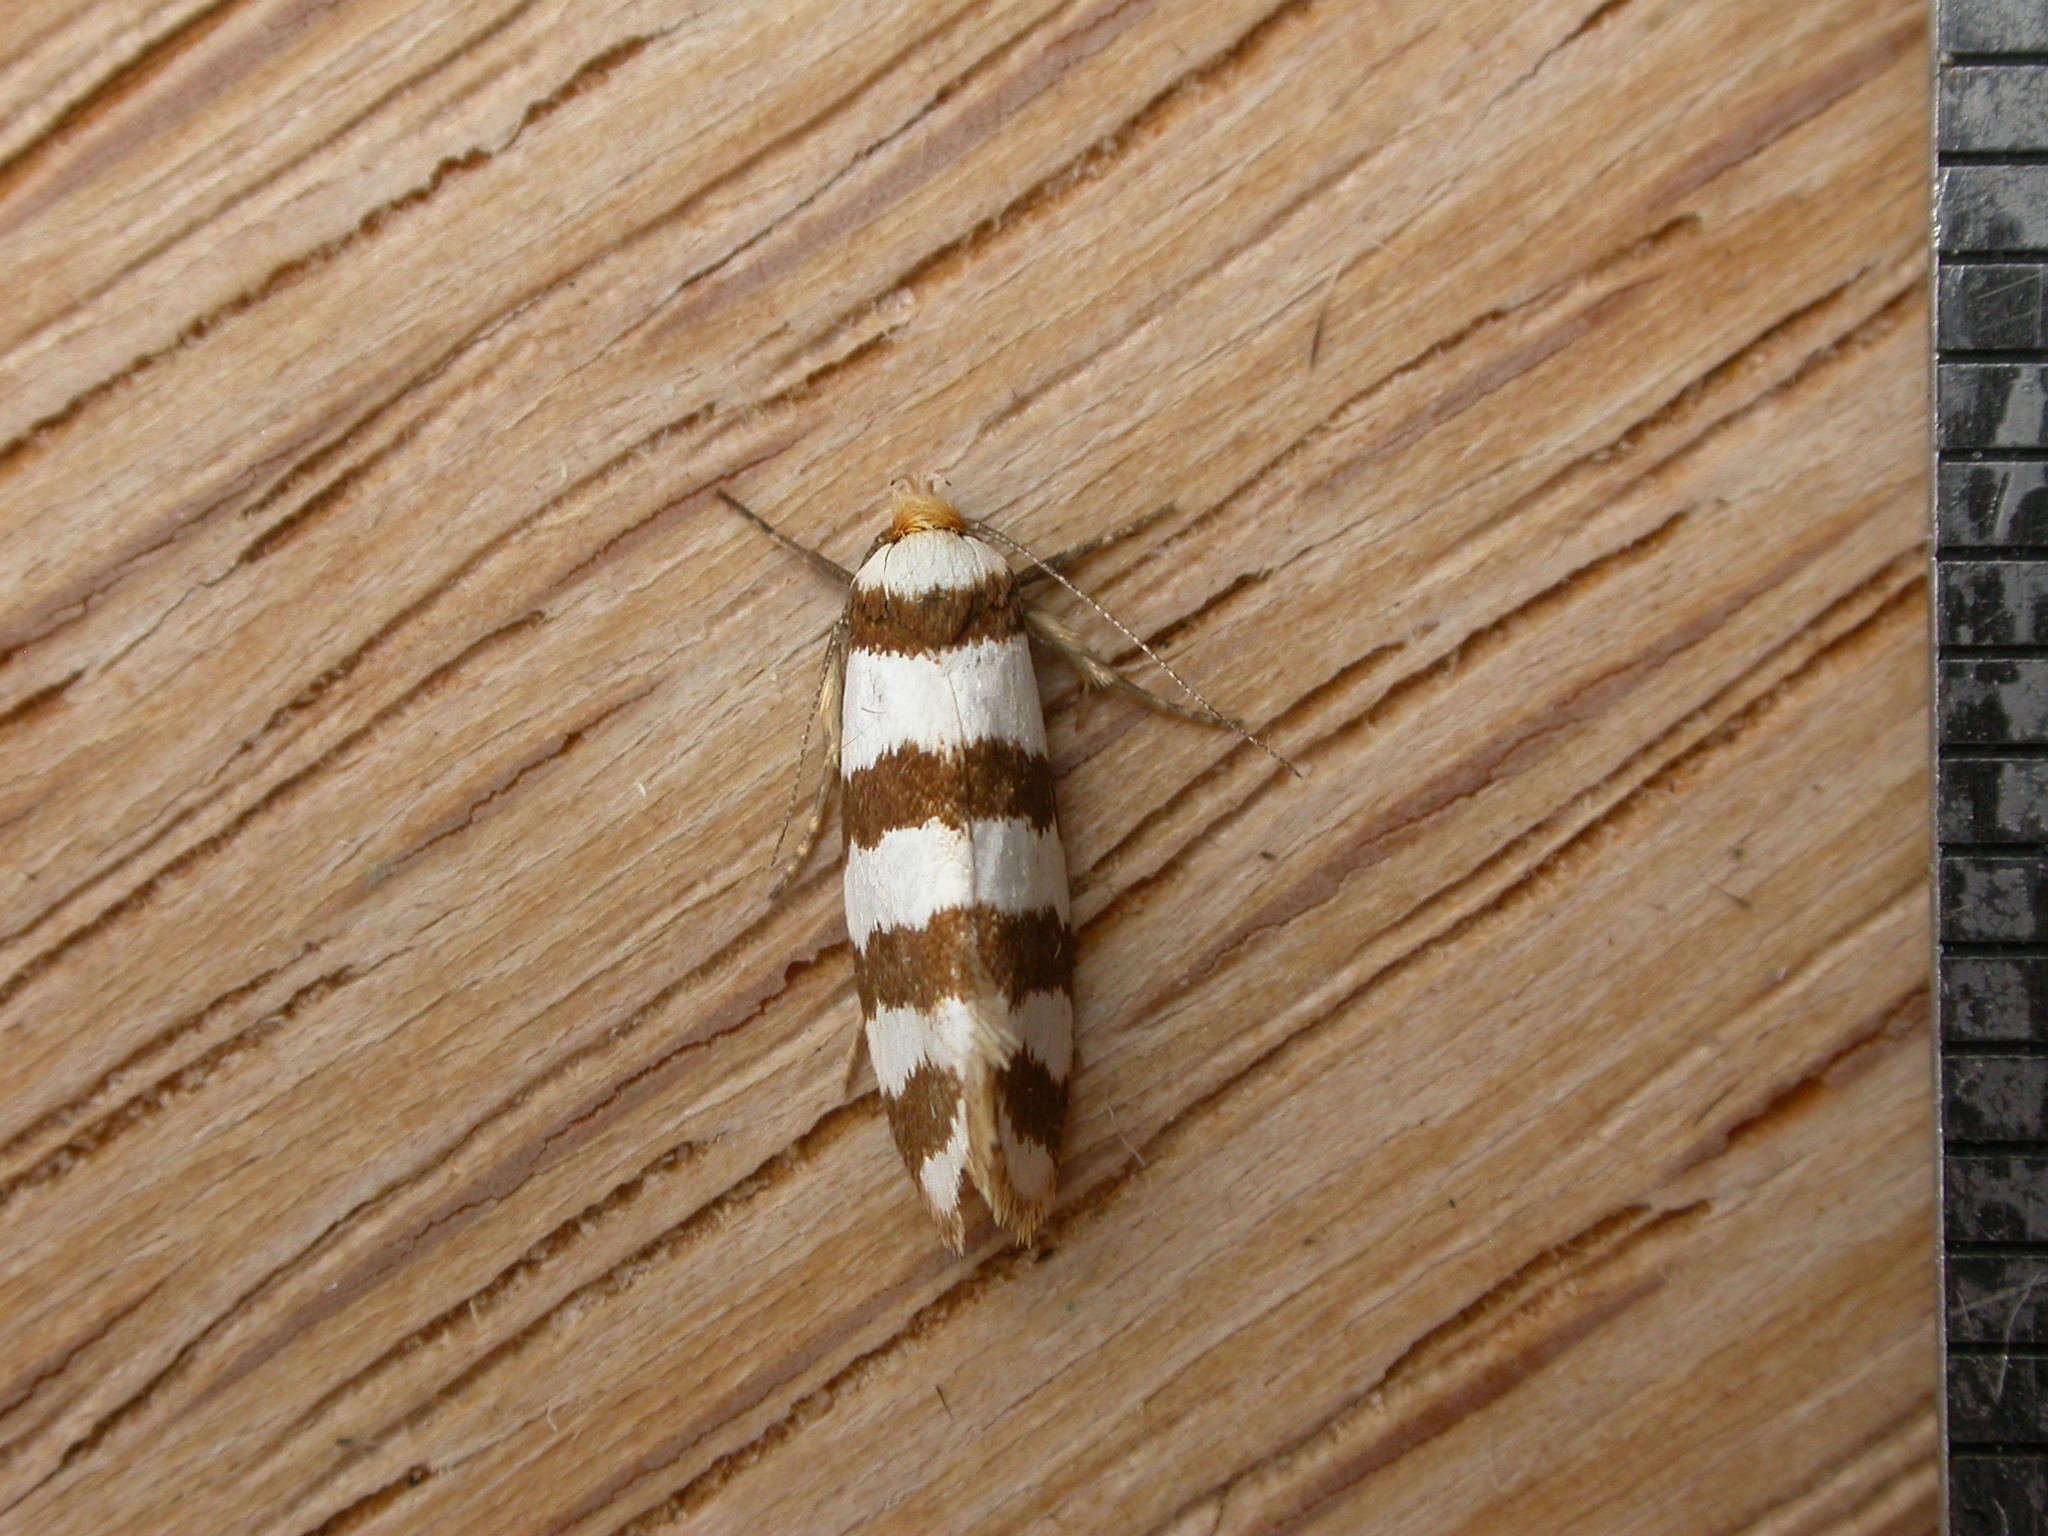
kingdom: Animalia
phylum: Arthropoda
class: Insecta
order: Lepidoptera
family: Oecophoridae
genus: Eulechria
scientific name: Eulechria contentella
